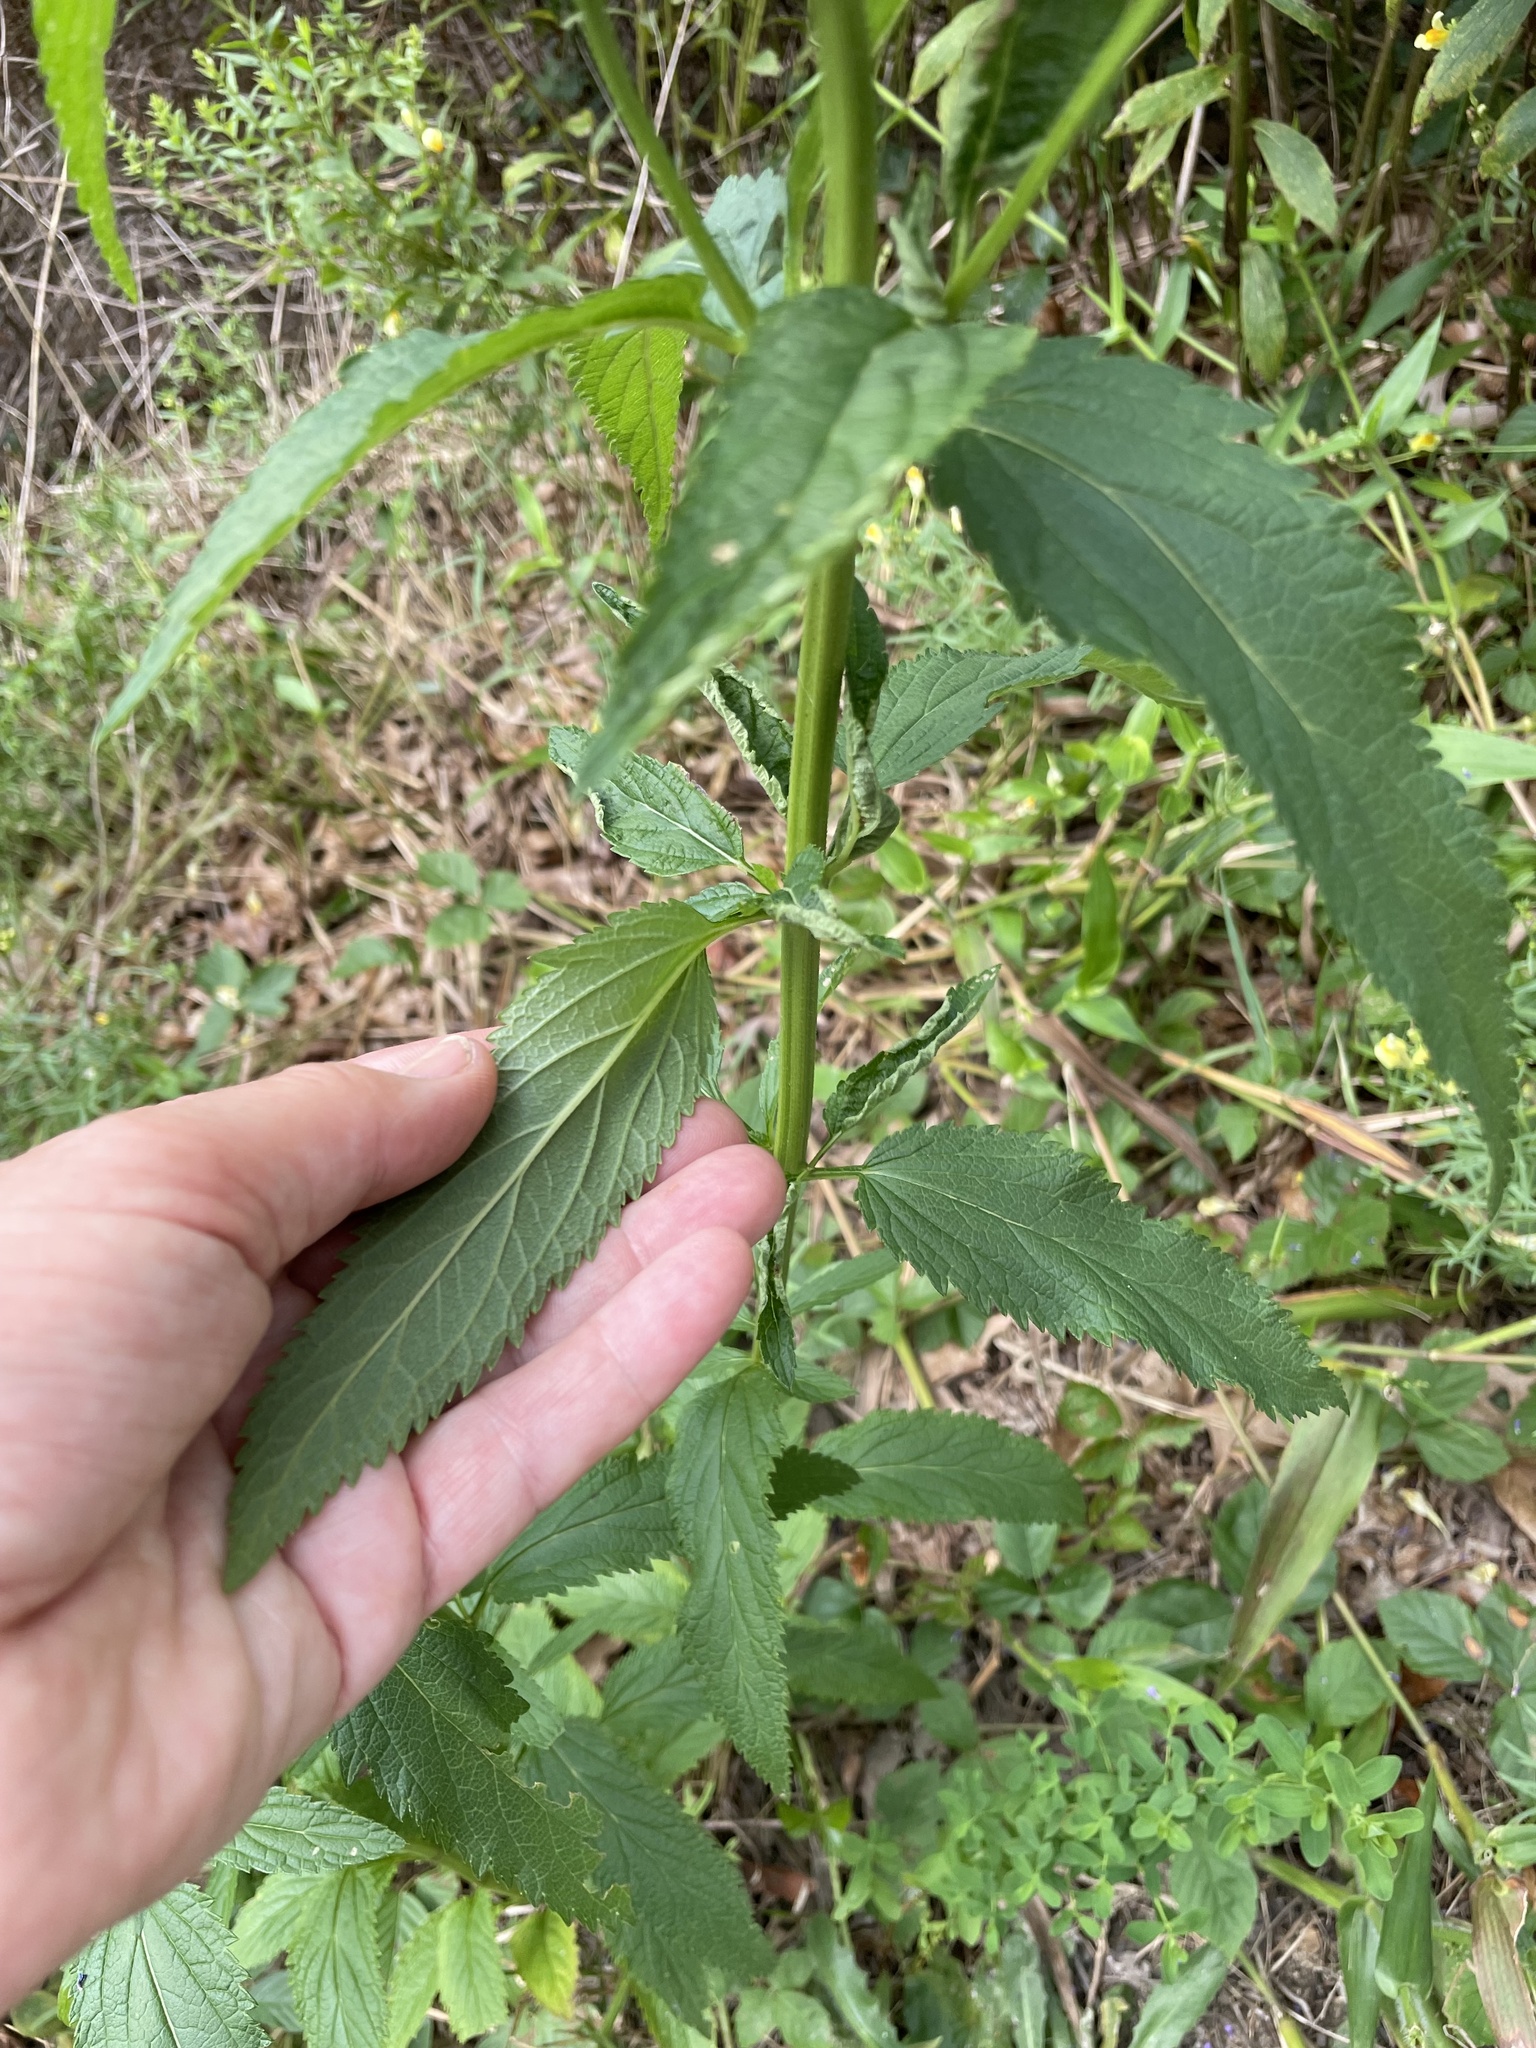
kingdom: Plantae
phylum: Tracheophyta
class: Magnoliopsida
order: Lamiales
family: Verbenaceae
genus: Verbena
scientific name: Verbena hastata
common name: American blue vervain
